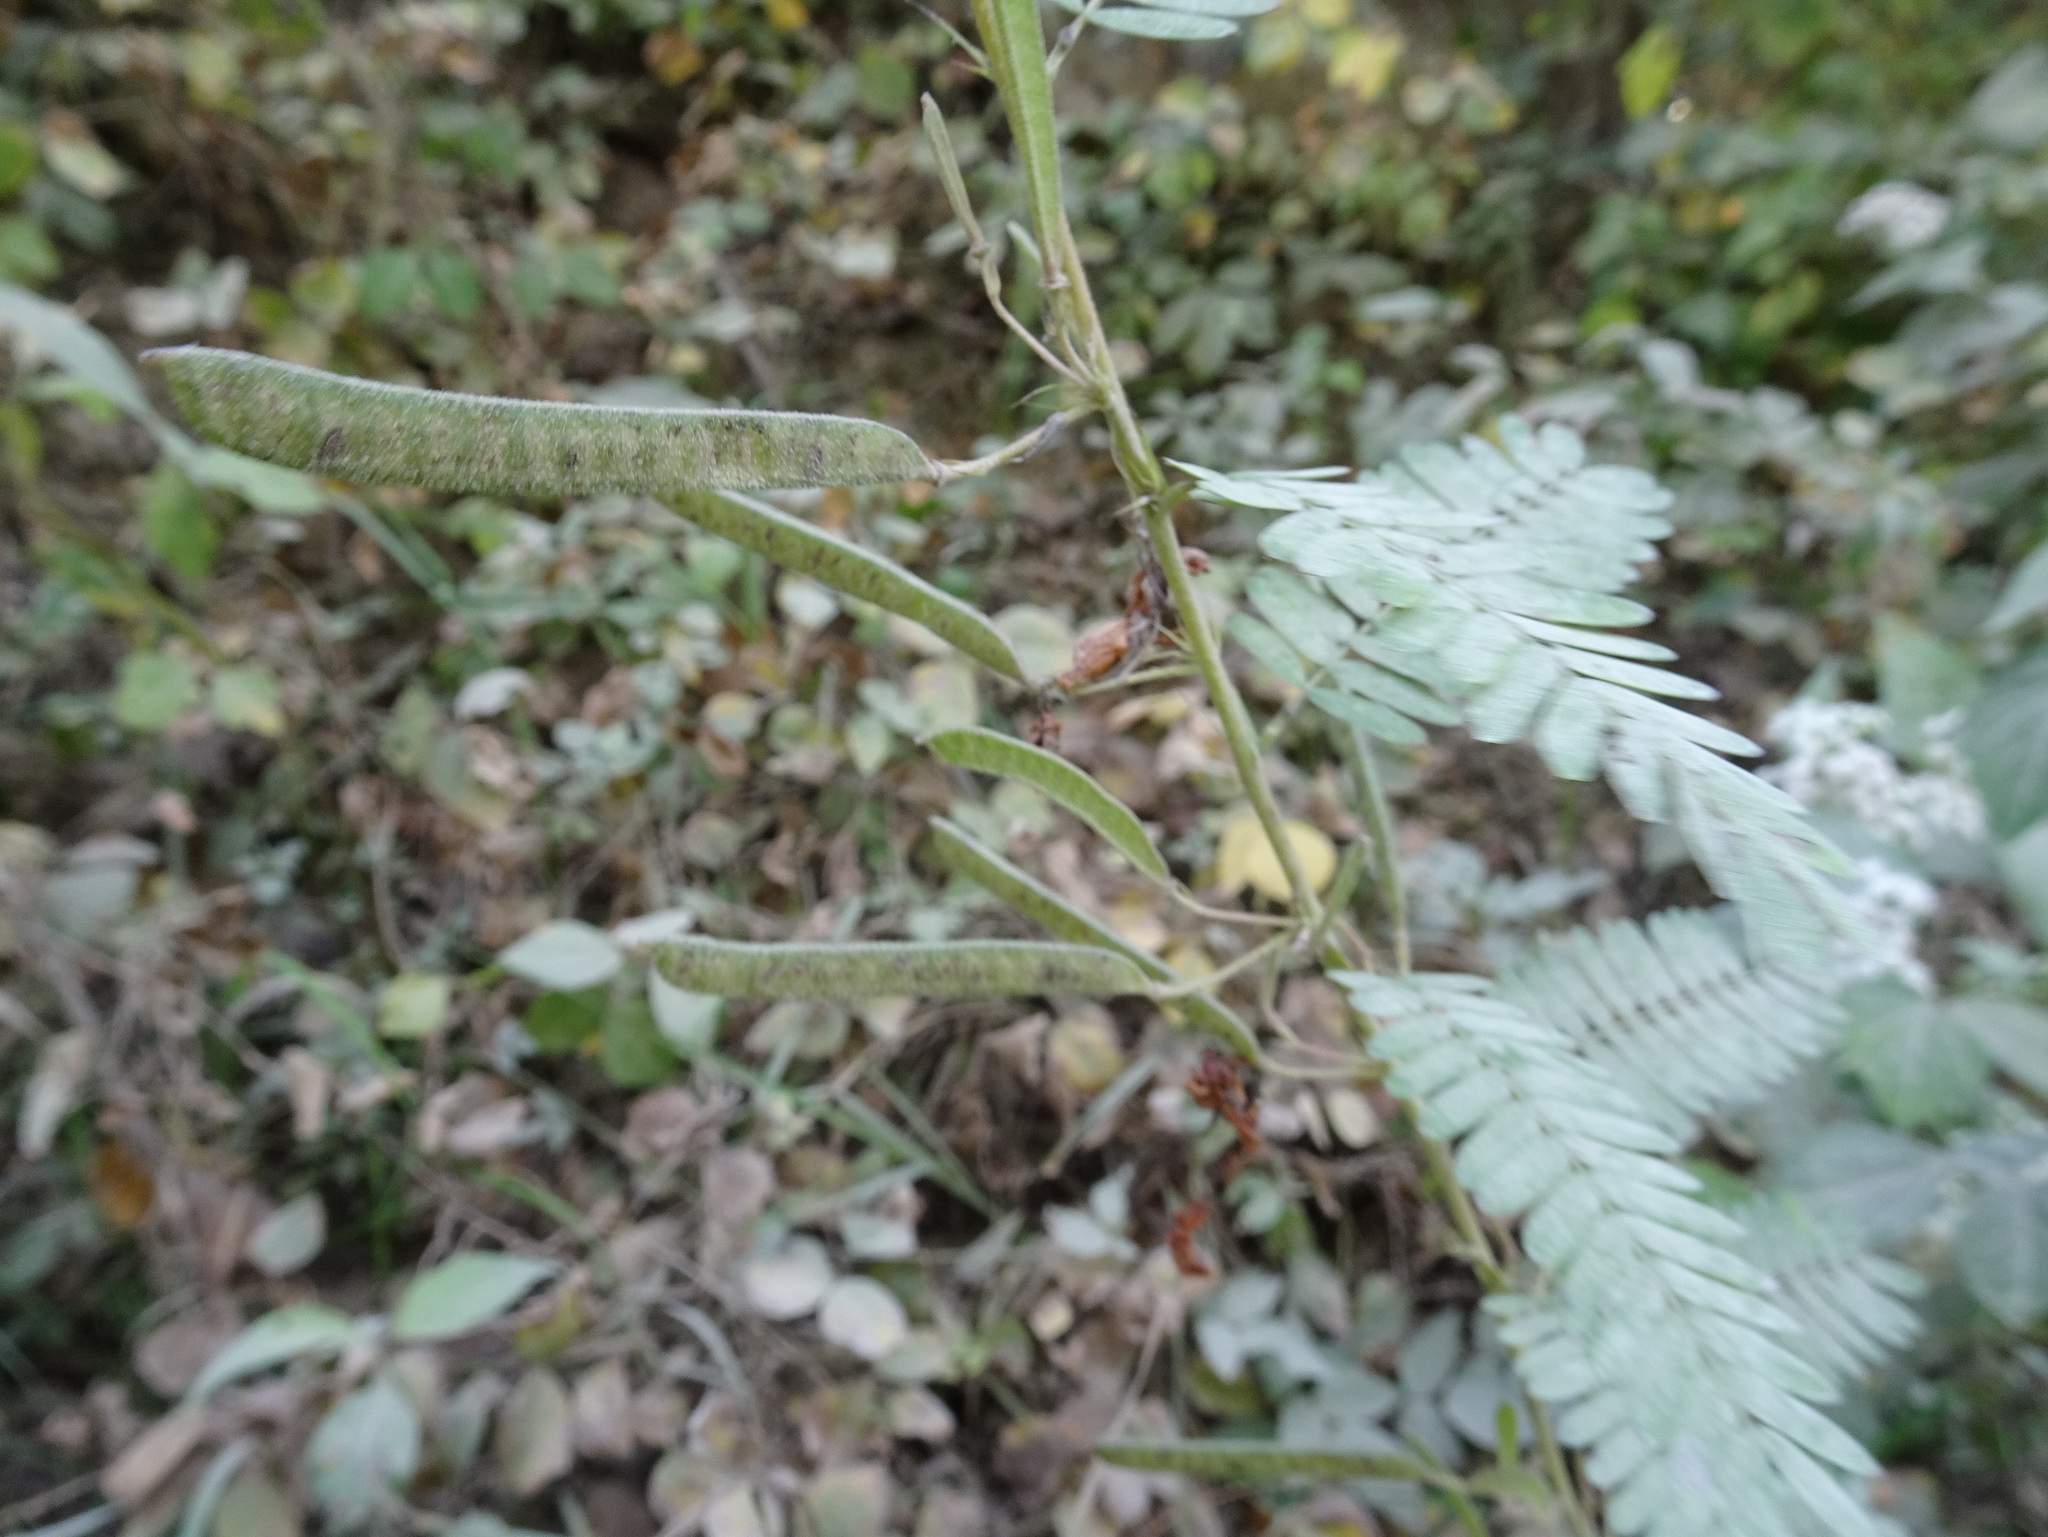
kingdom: Plantae
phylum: Tracheophyta
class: Magnoliopsida
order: Fabales
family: Fabaceae
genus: Chamaecrista
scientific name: Chamaecrista fasciculata
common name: Golden cassia
